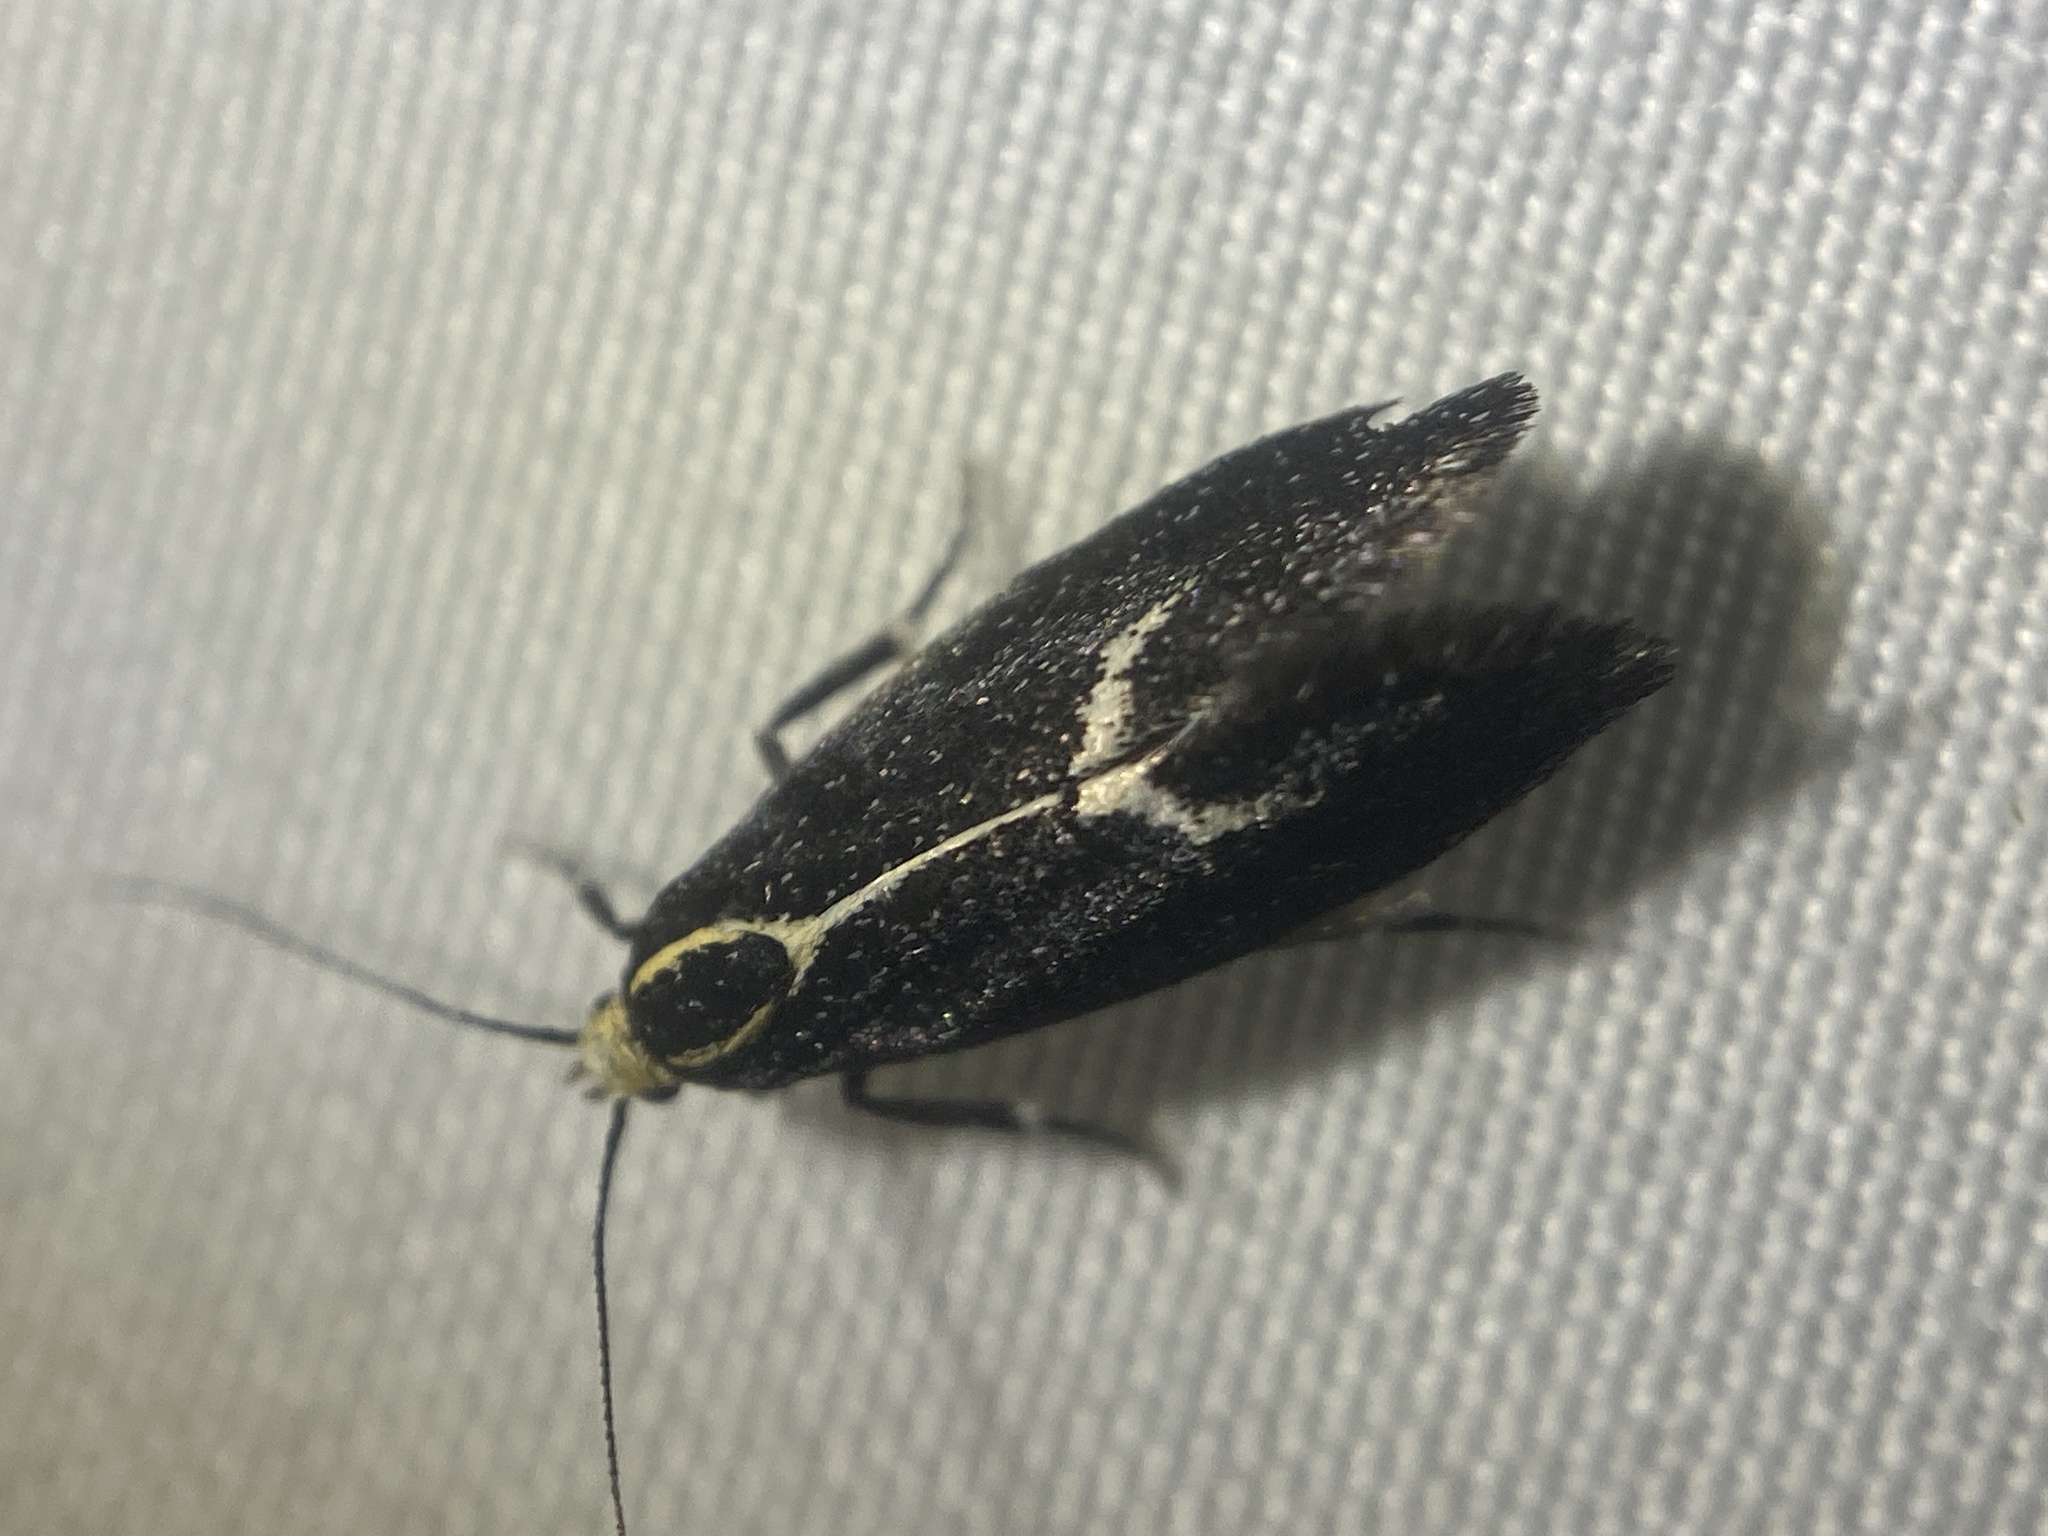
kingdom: Animalia
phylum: Arthropoda
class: Insecta
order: Lepidoptera
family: Oecophoridae
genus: Polix
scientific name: Polix coloradella
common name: Skunk moth
